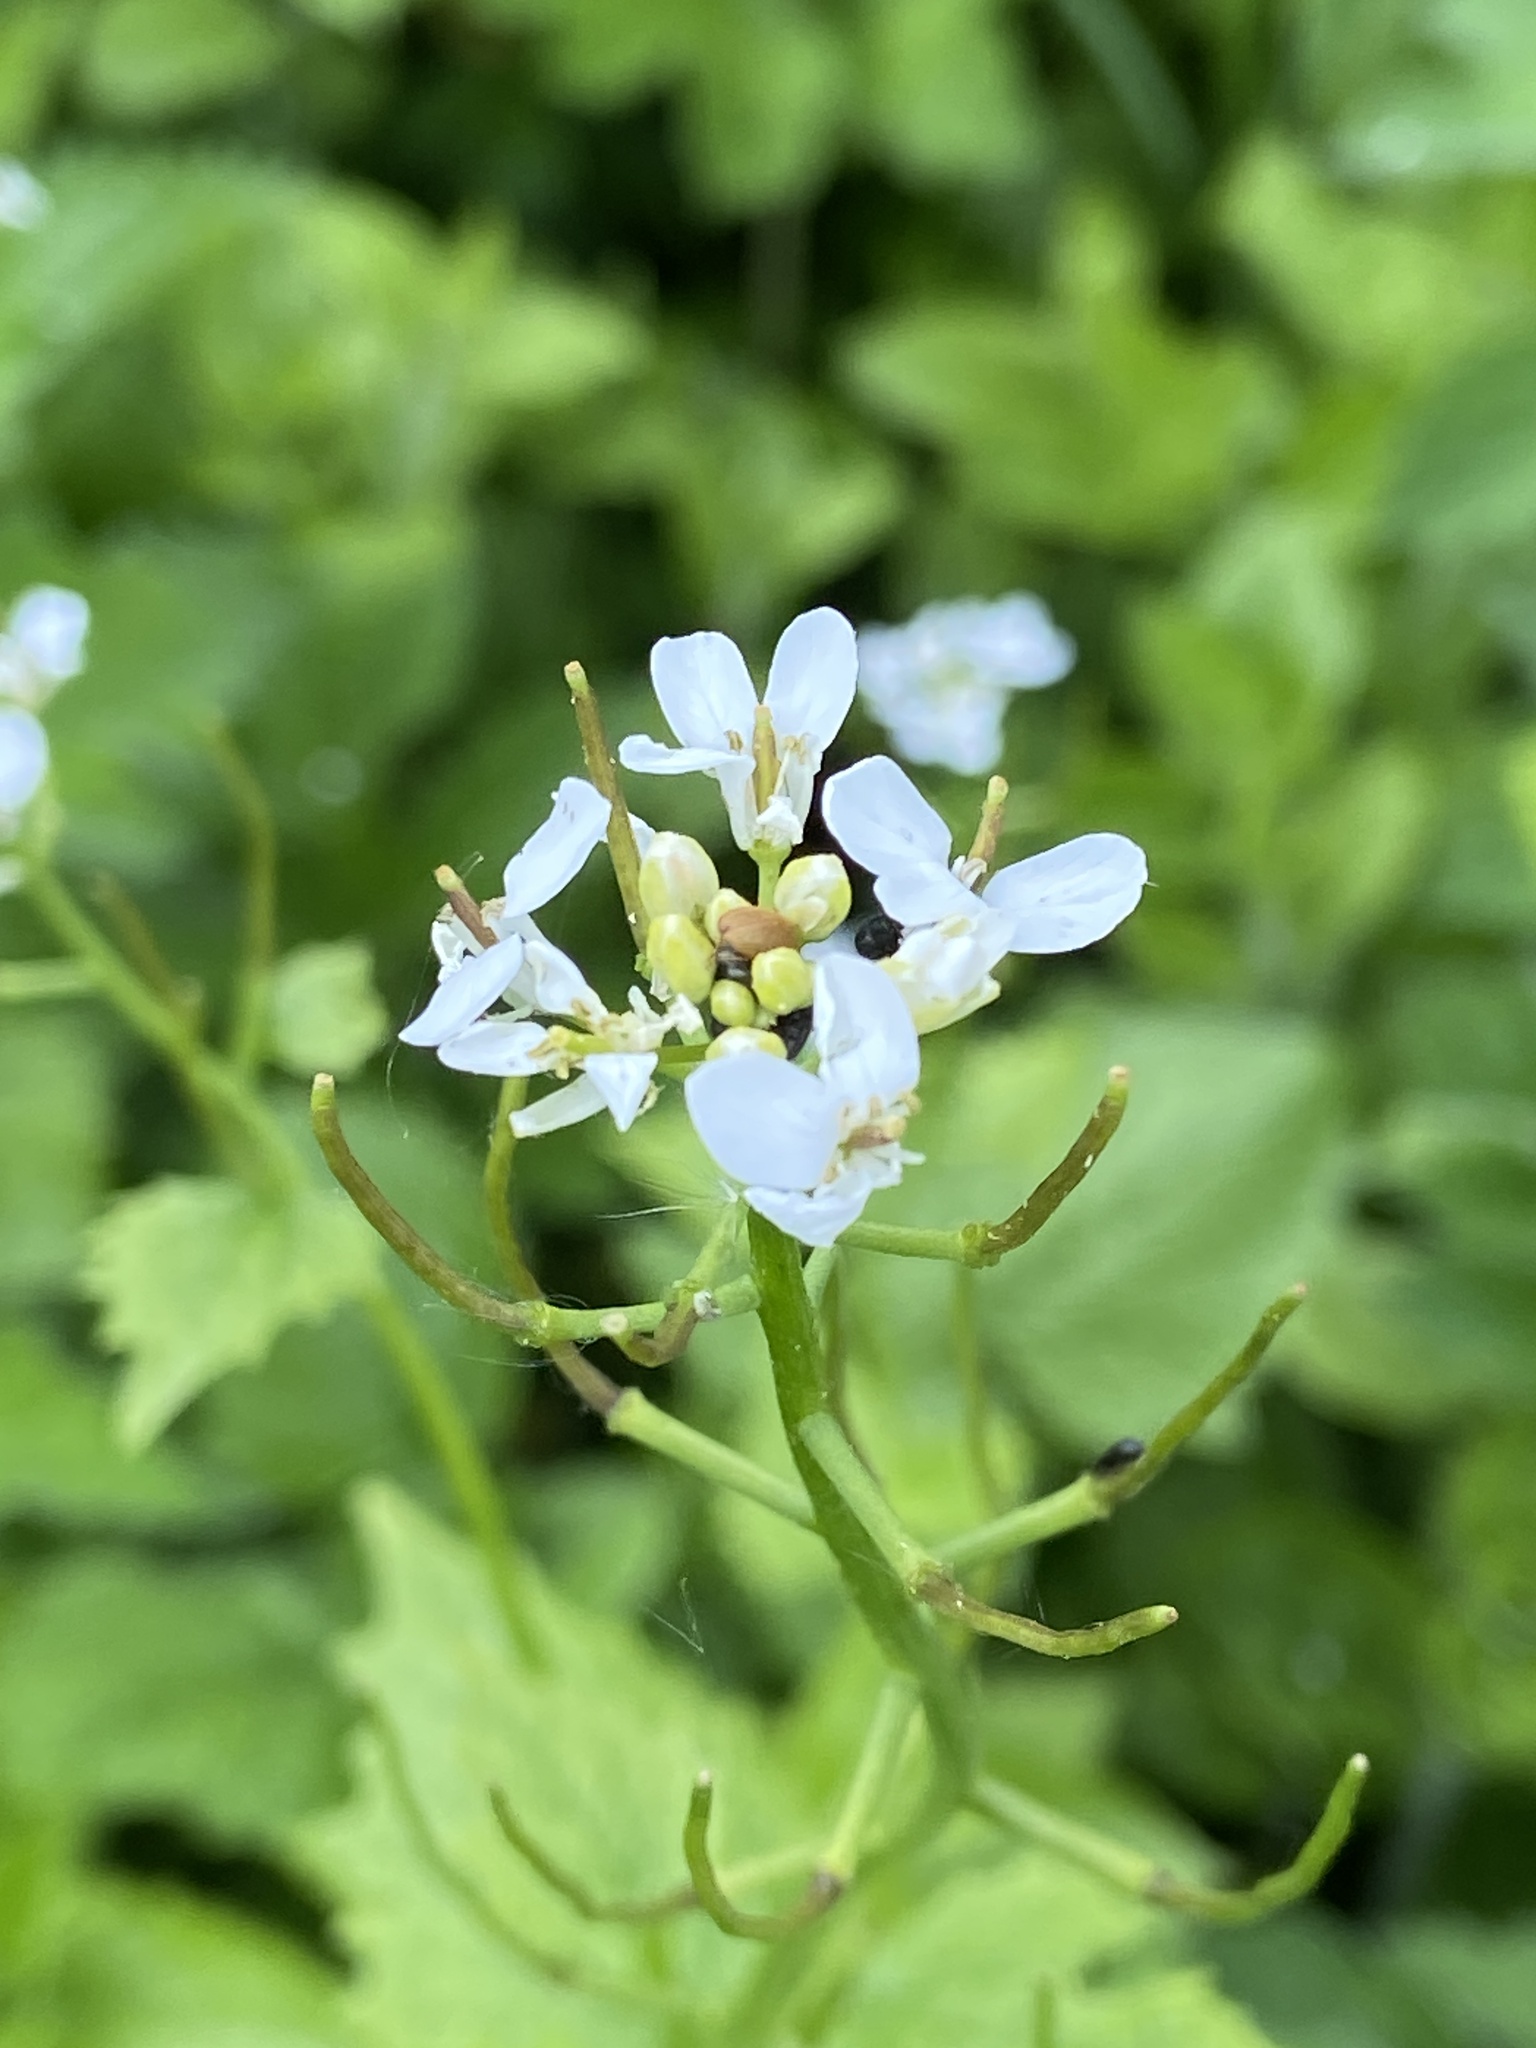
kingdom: Plantae
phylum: Tracheophyta
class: Magnoliopsida
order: Brassicales
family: Brassicaceae
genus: Alliaria
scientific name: Alliaria petiolata
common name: Garlic mustard
